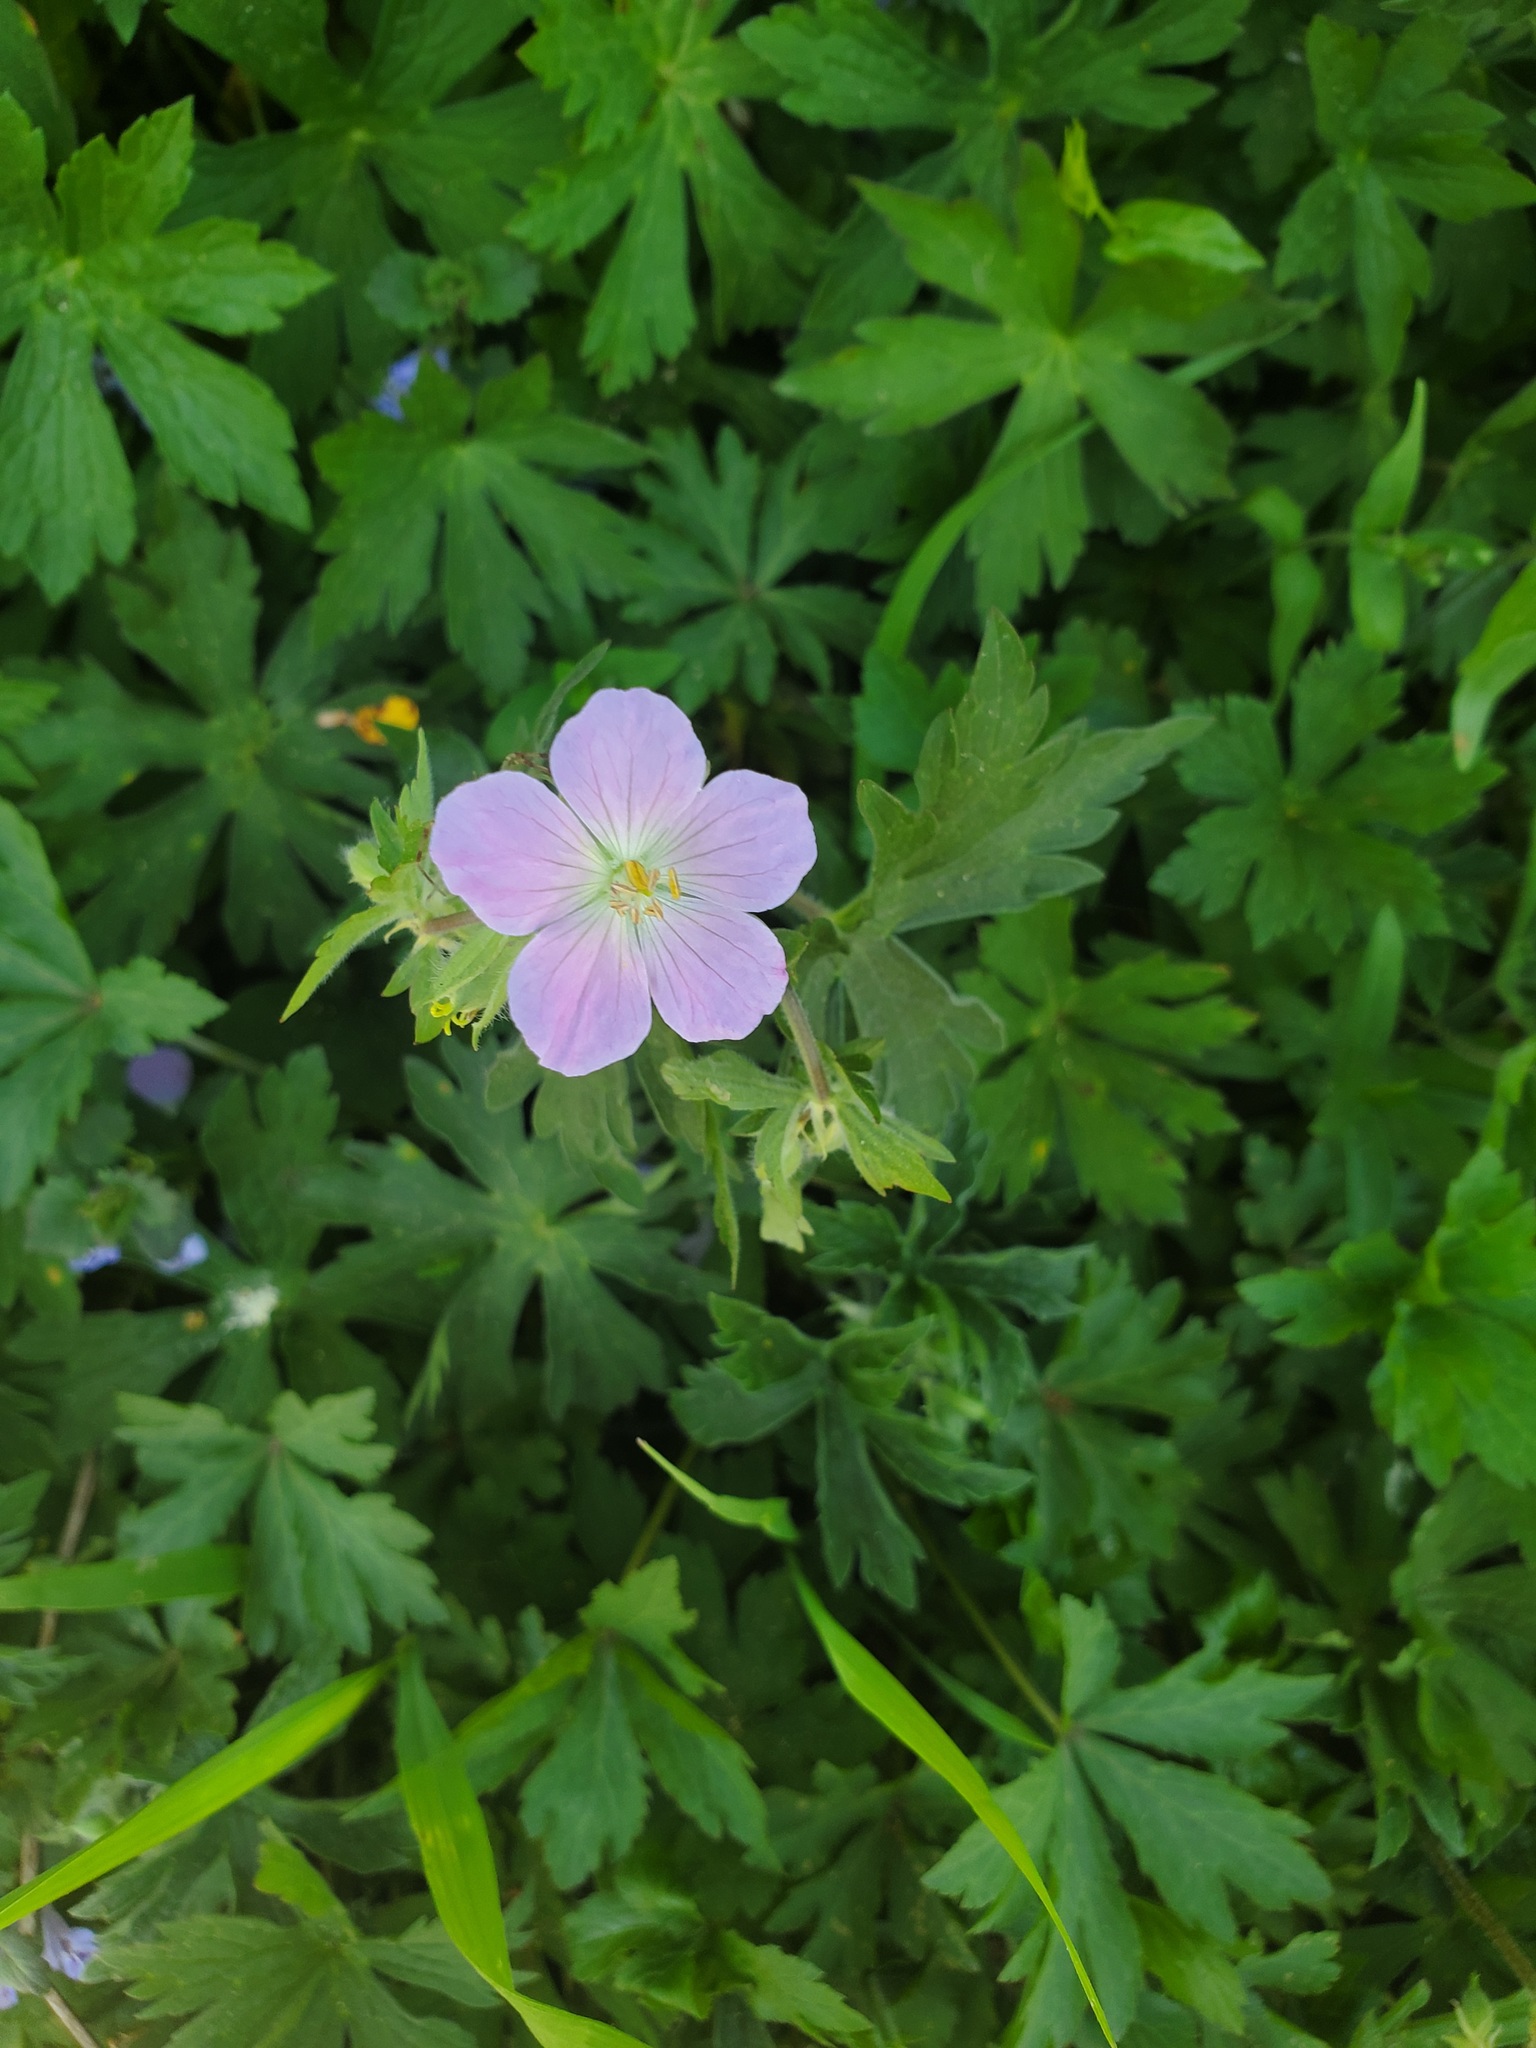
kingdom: Plantae
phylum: Tracheophyta
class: Magnoliopsida
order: Geraniales
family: Geraniaceae
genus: Geranium
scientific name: Geranium maculatum
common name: Spotted geranium
